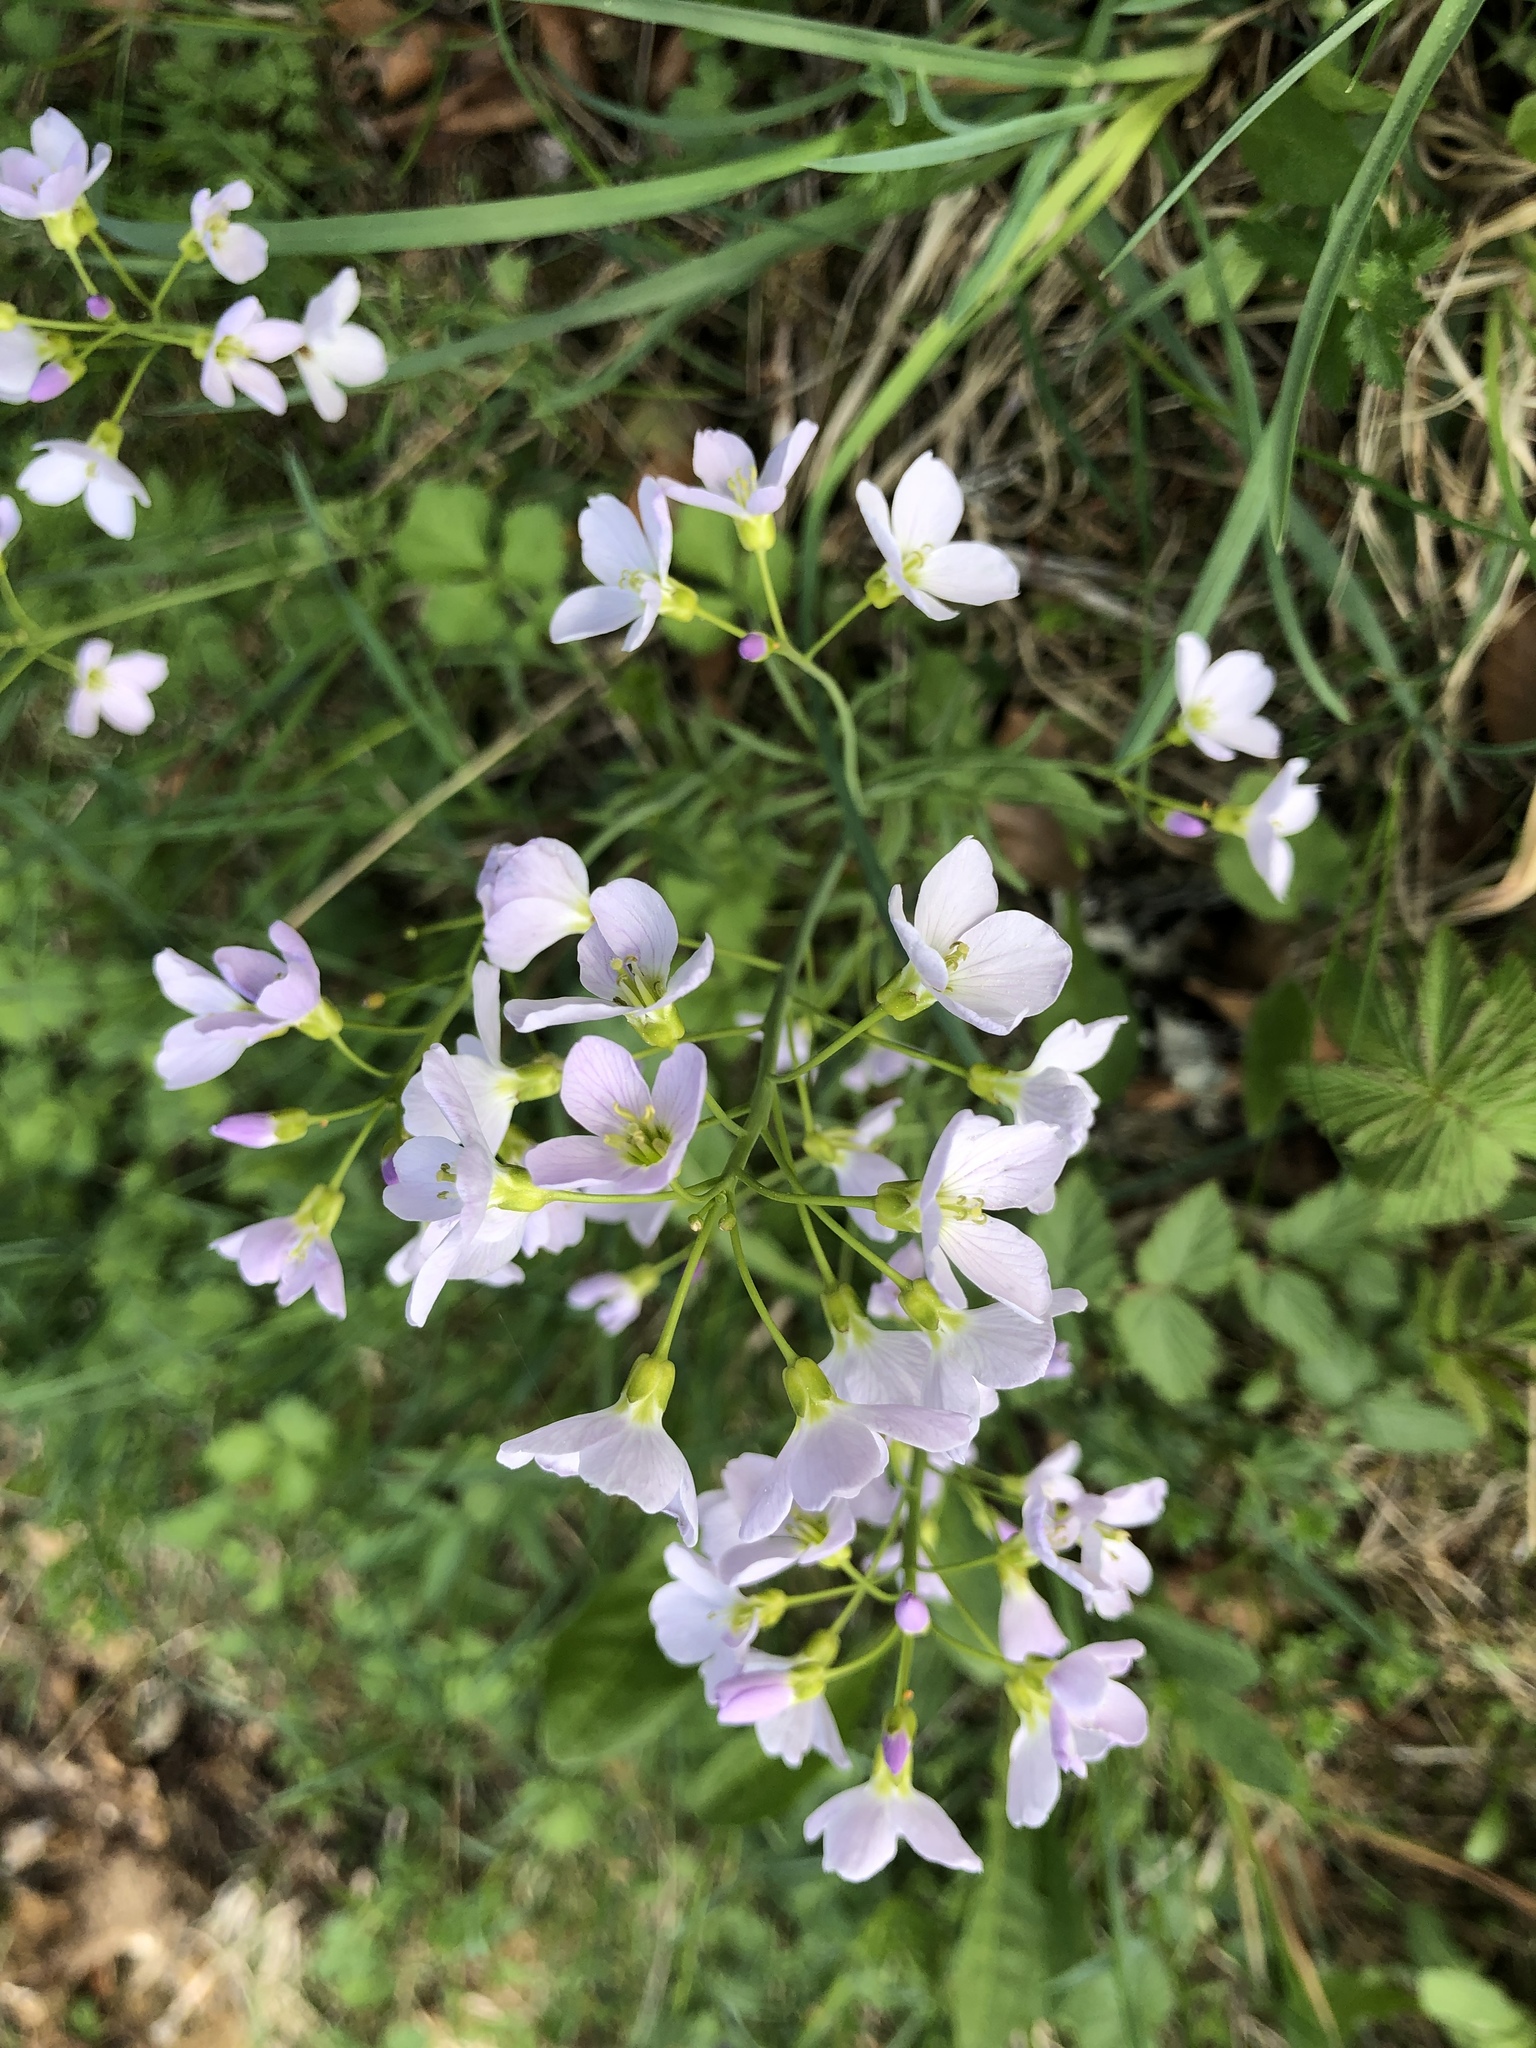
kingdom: Plantae
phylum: Tracheophyta
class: Magnoliopsida
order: Brassicales
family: Brassicaceae
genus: Cardamine
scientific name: Cardamine pratensis
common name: Cuckoo flower
